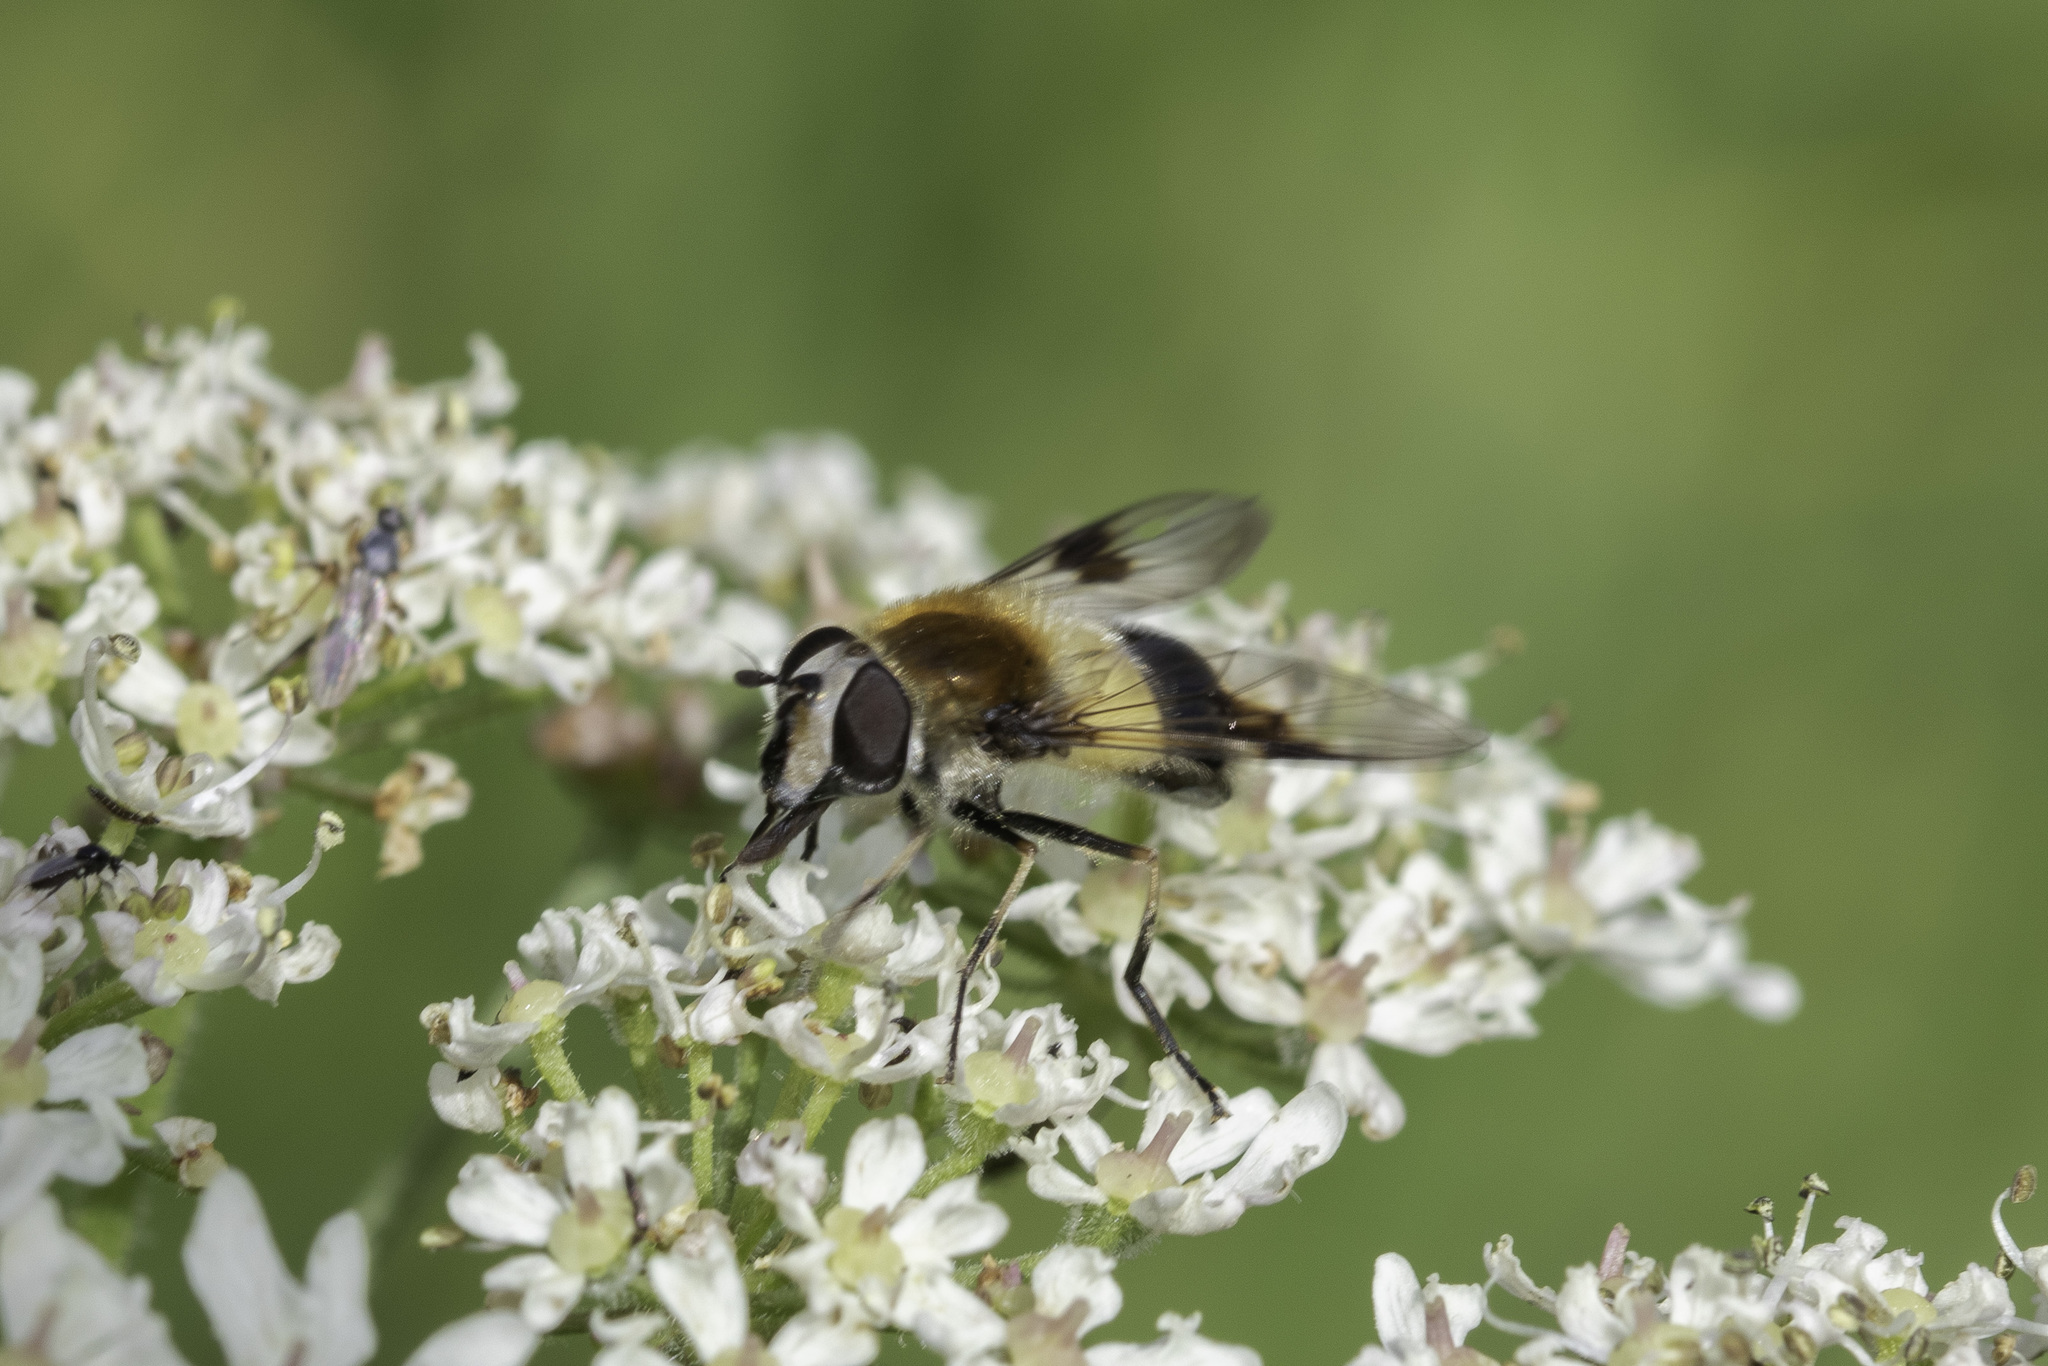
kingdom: Animalia
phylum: Arthropoda
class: Insecta
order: Diptera
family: Syrphidae
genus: Leucozona
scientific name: Leucozona lucorum
